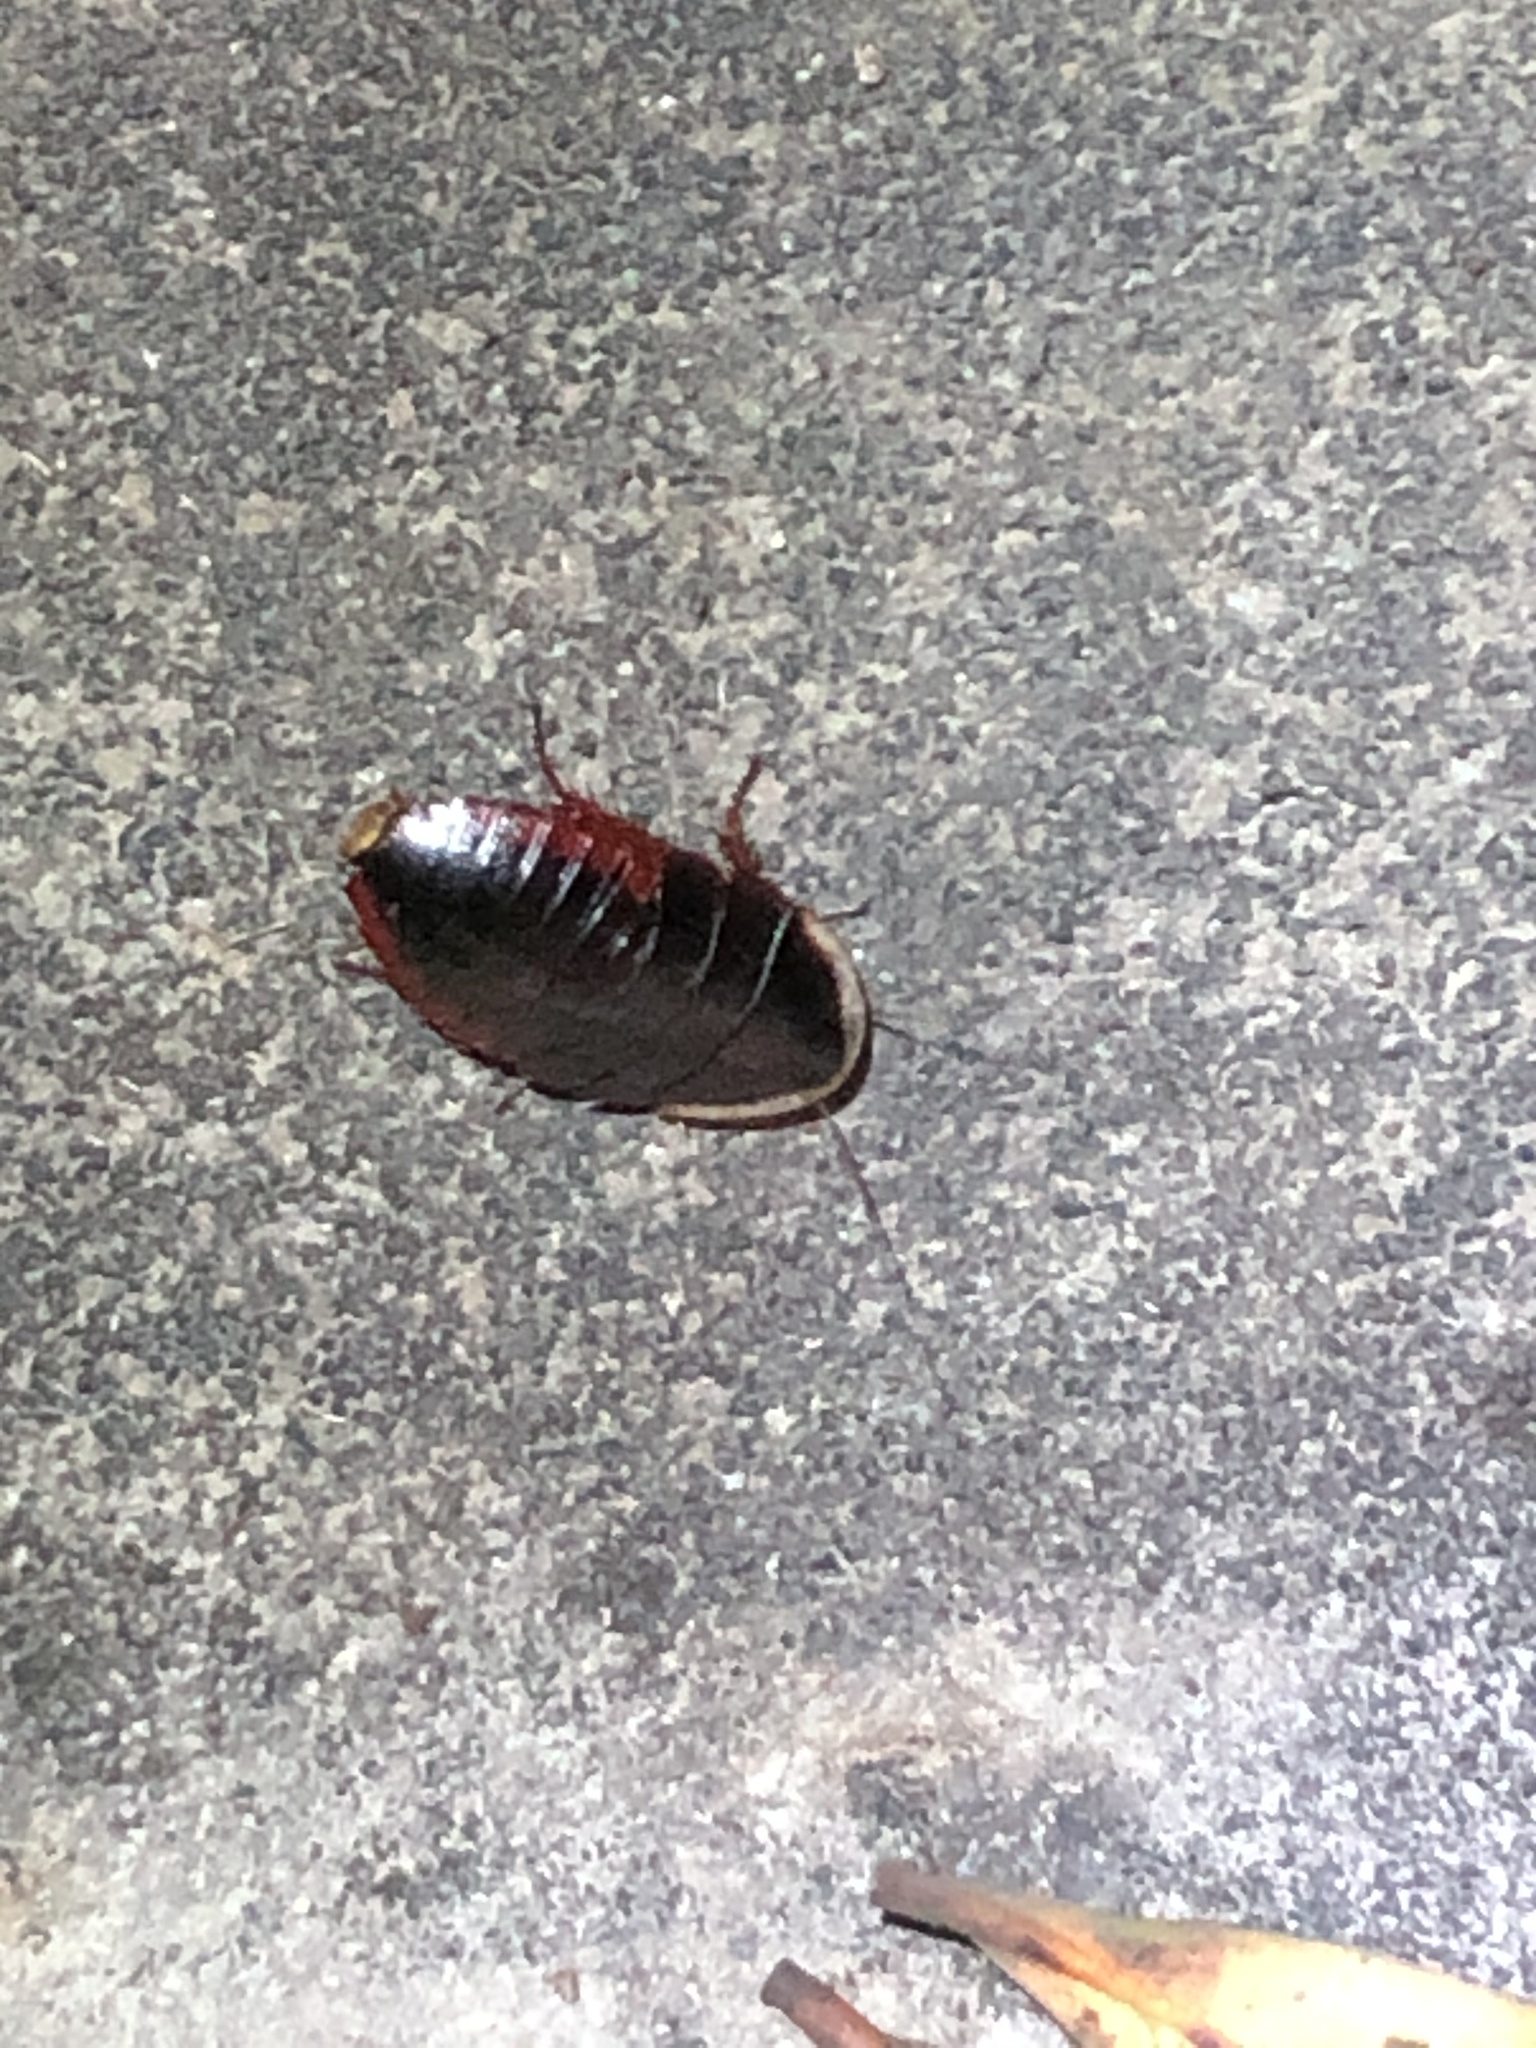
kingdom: Animalia
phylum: Arthropoda
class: Insecta
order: Blattodea
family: Blaberidae
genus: Opisthoplatia
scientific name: Opisthoplatia orientalis
